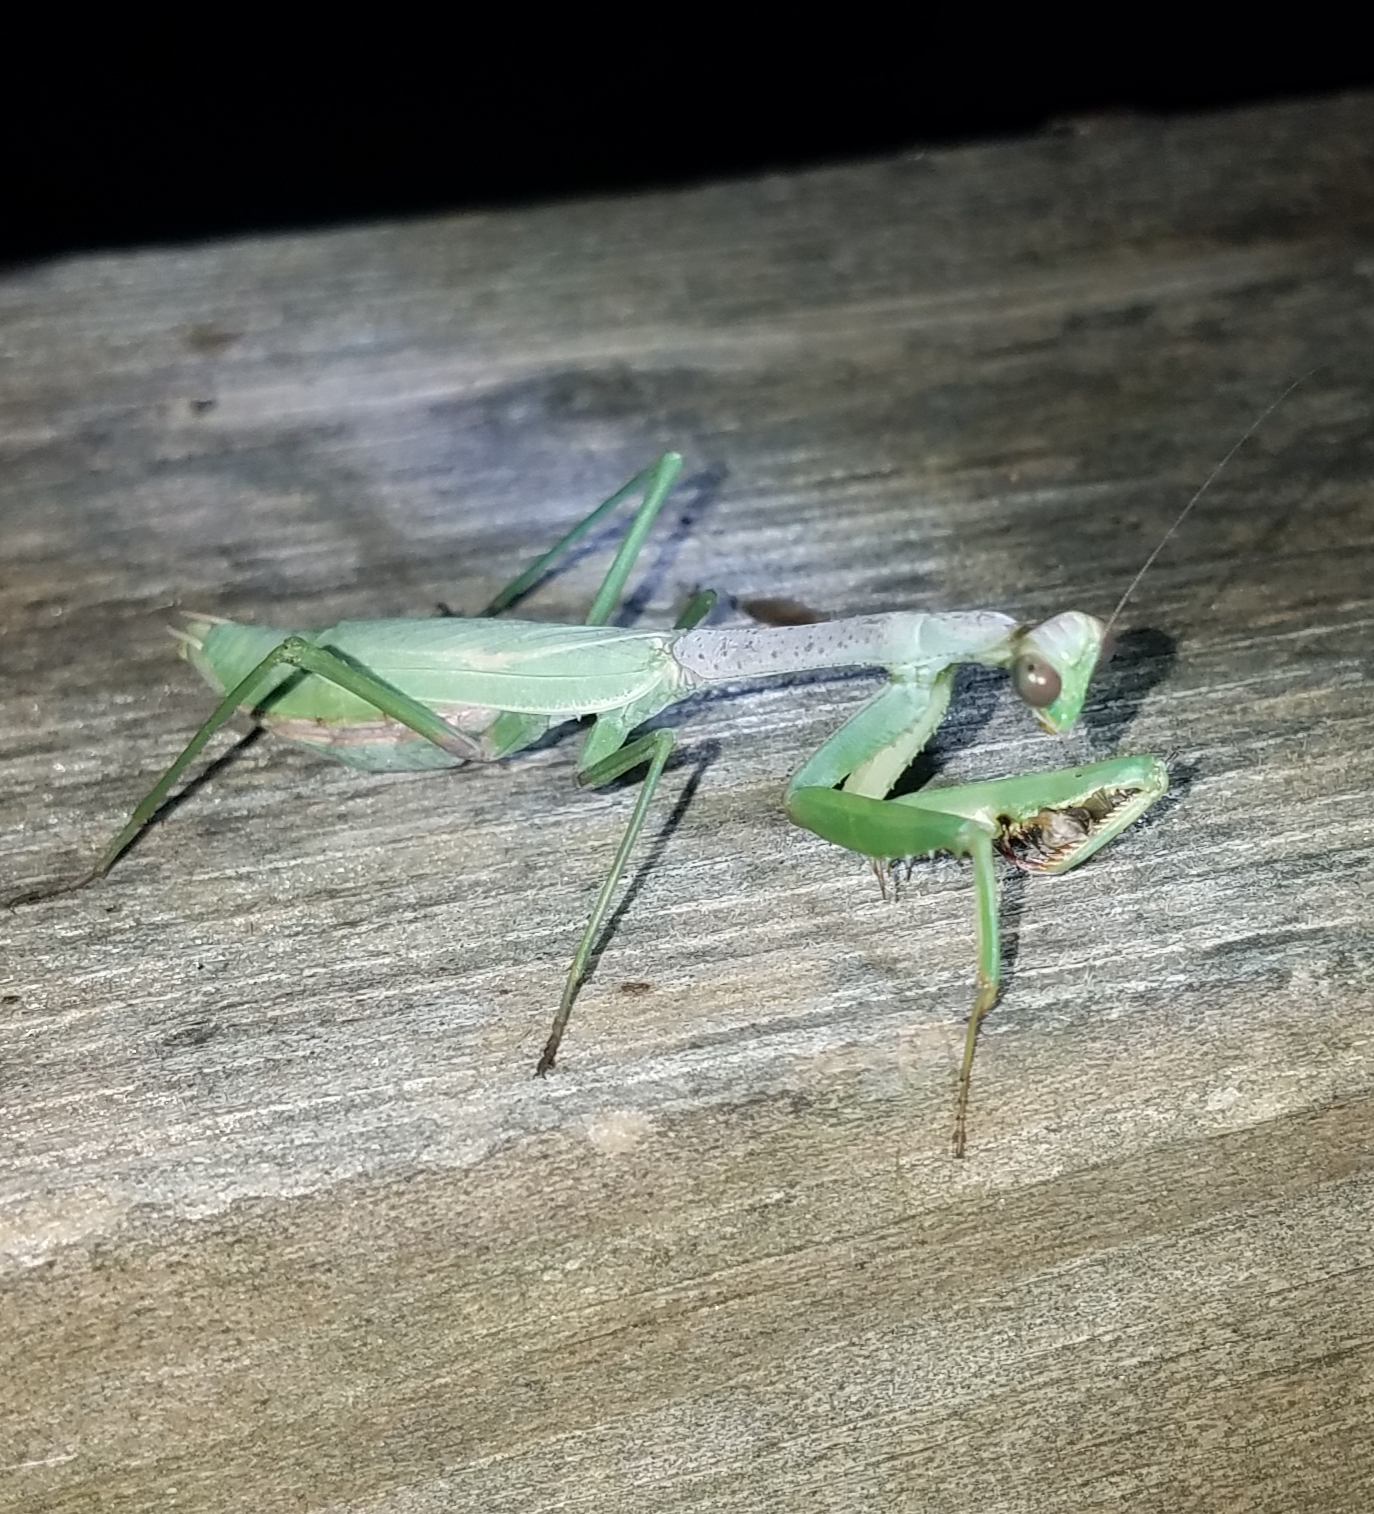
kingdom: Animalia
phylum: Arthropoda
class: Insecta
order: Mantodea
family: Mantidae
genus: Stagmomantis
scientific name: Stagmomantis carolina
